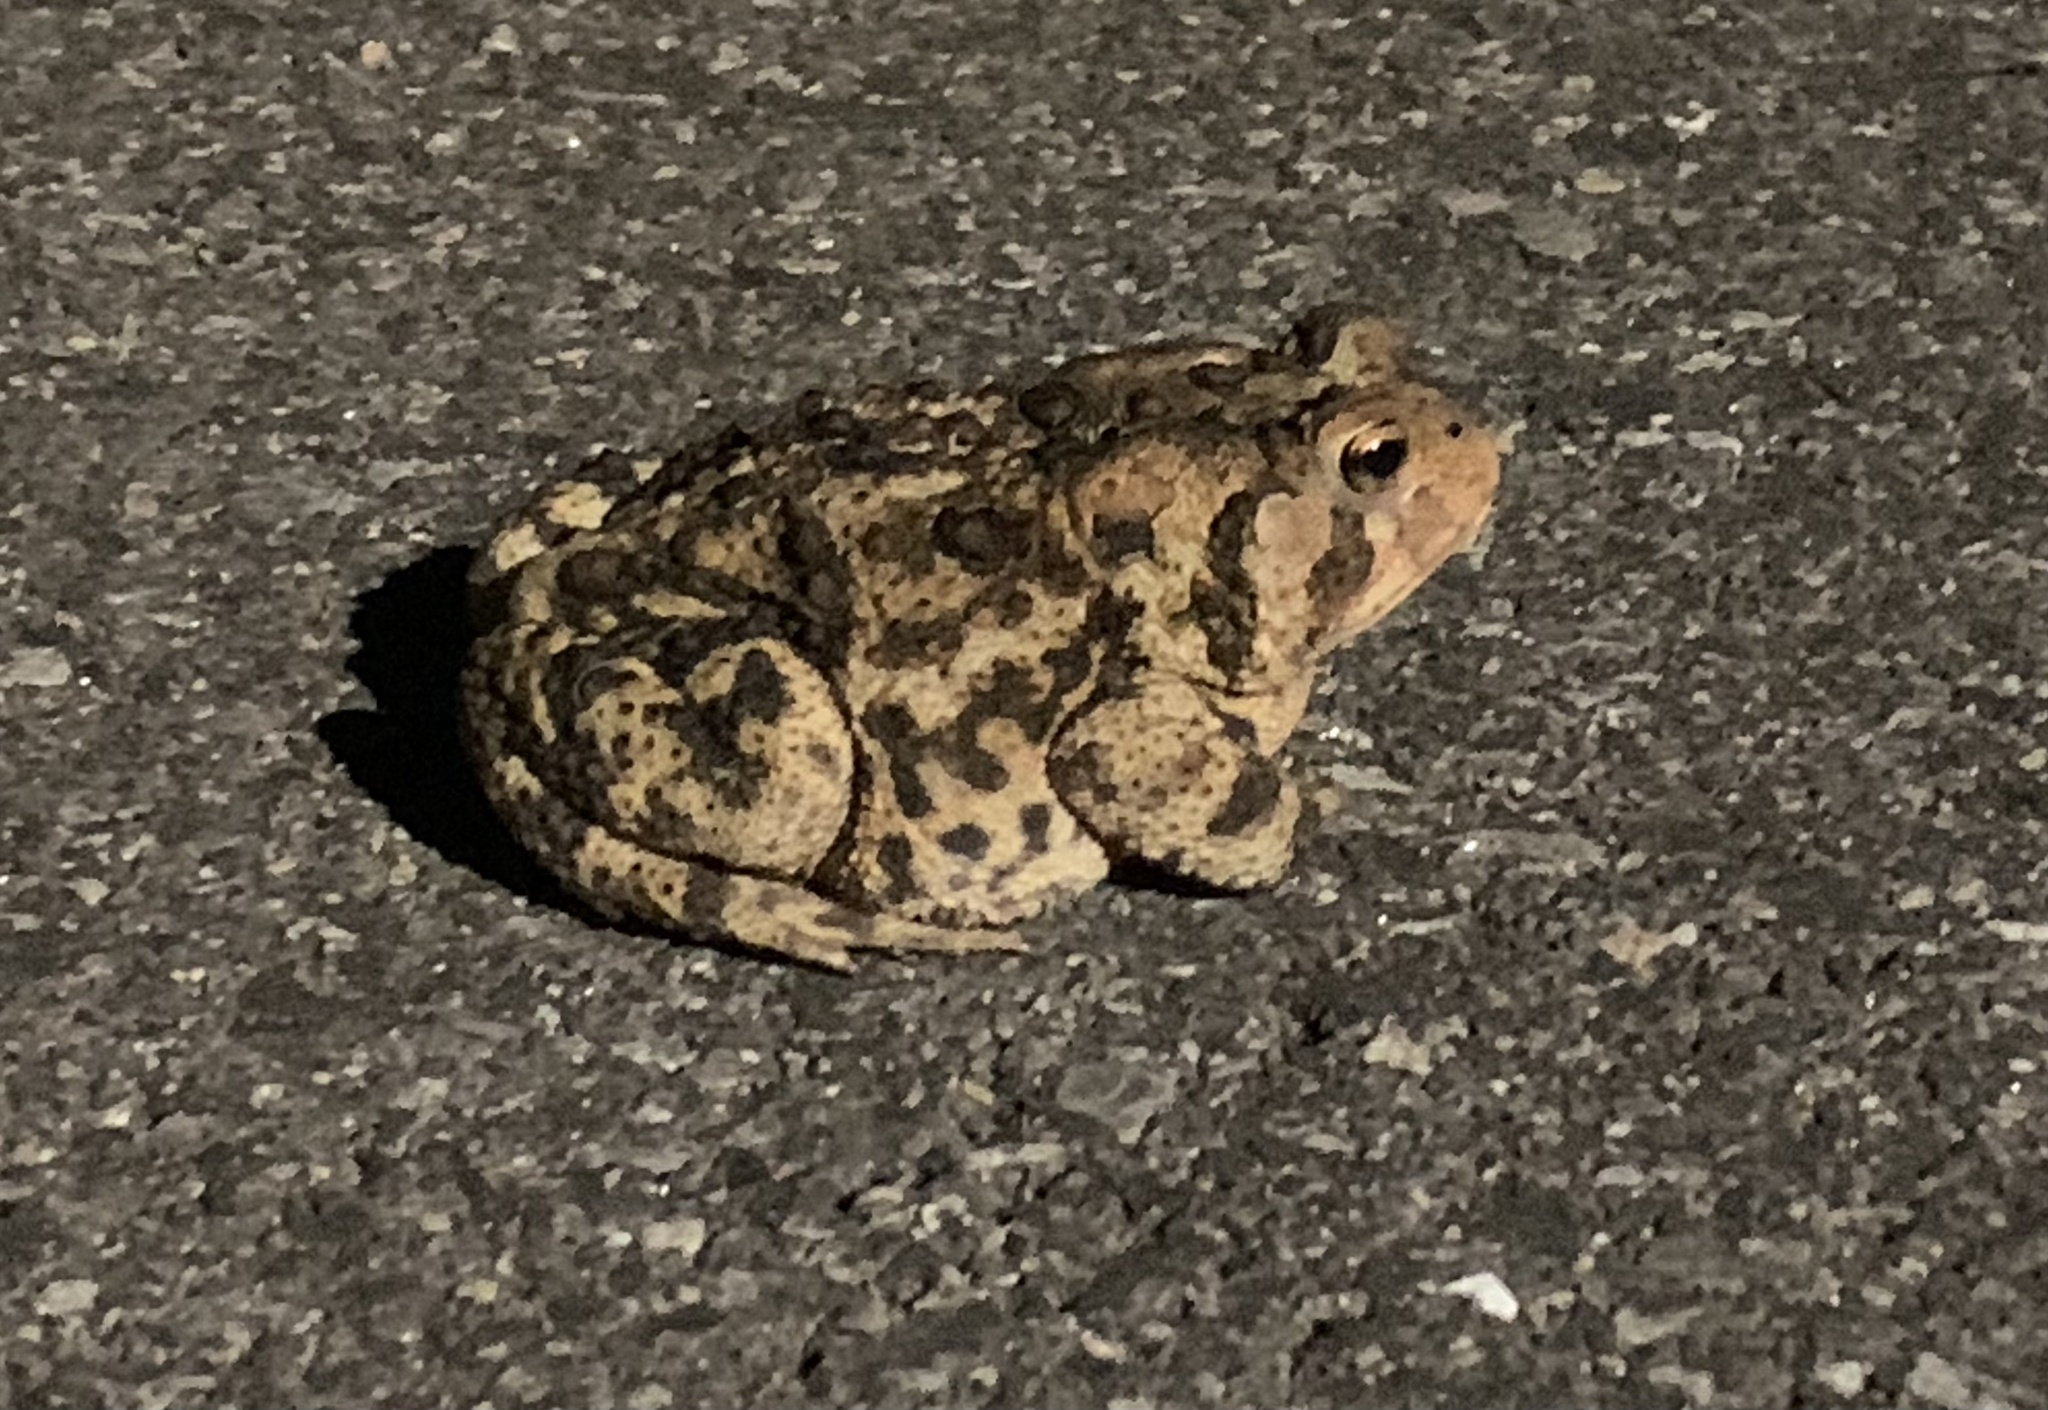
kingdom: Animalia
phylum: Chordata
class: Amphibia
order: Anura
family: Bufonidae
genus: Anaxyrus
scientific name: Anaxyrus americanus
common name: American toad
